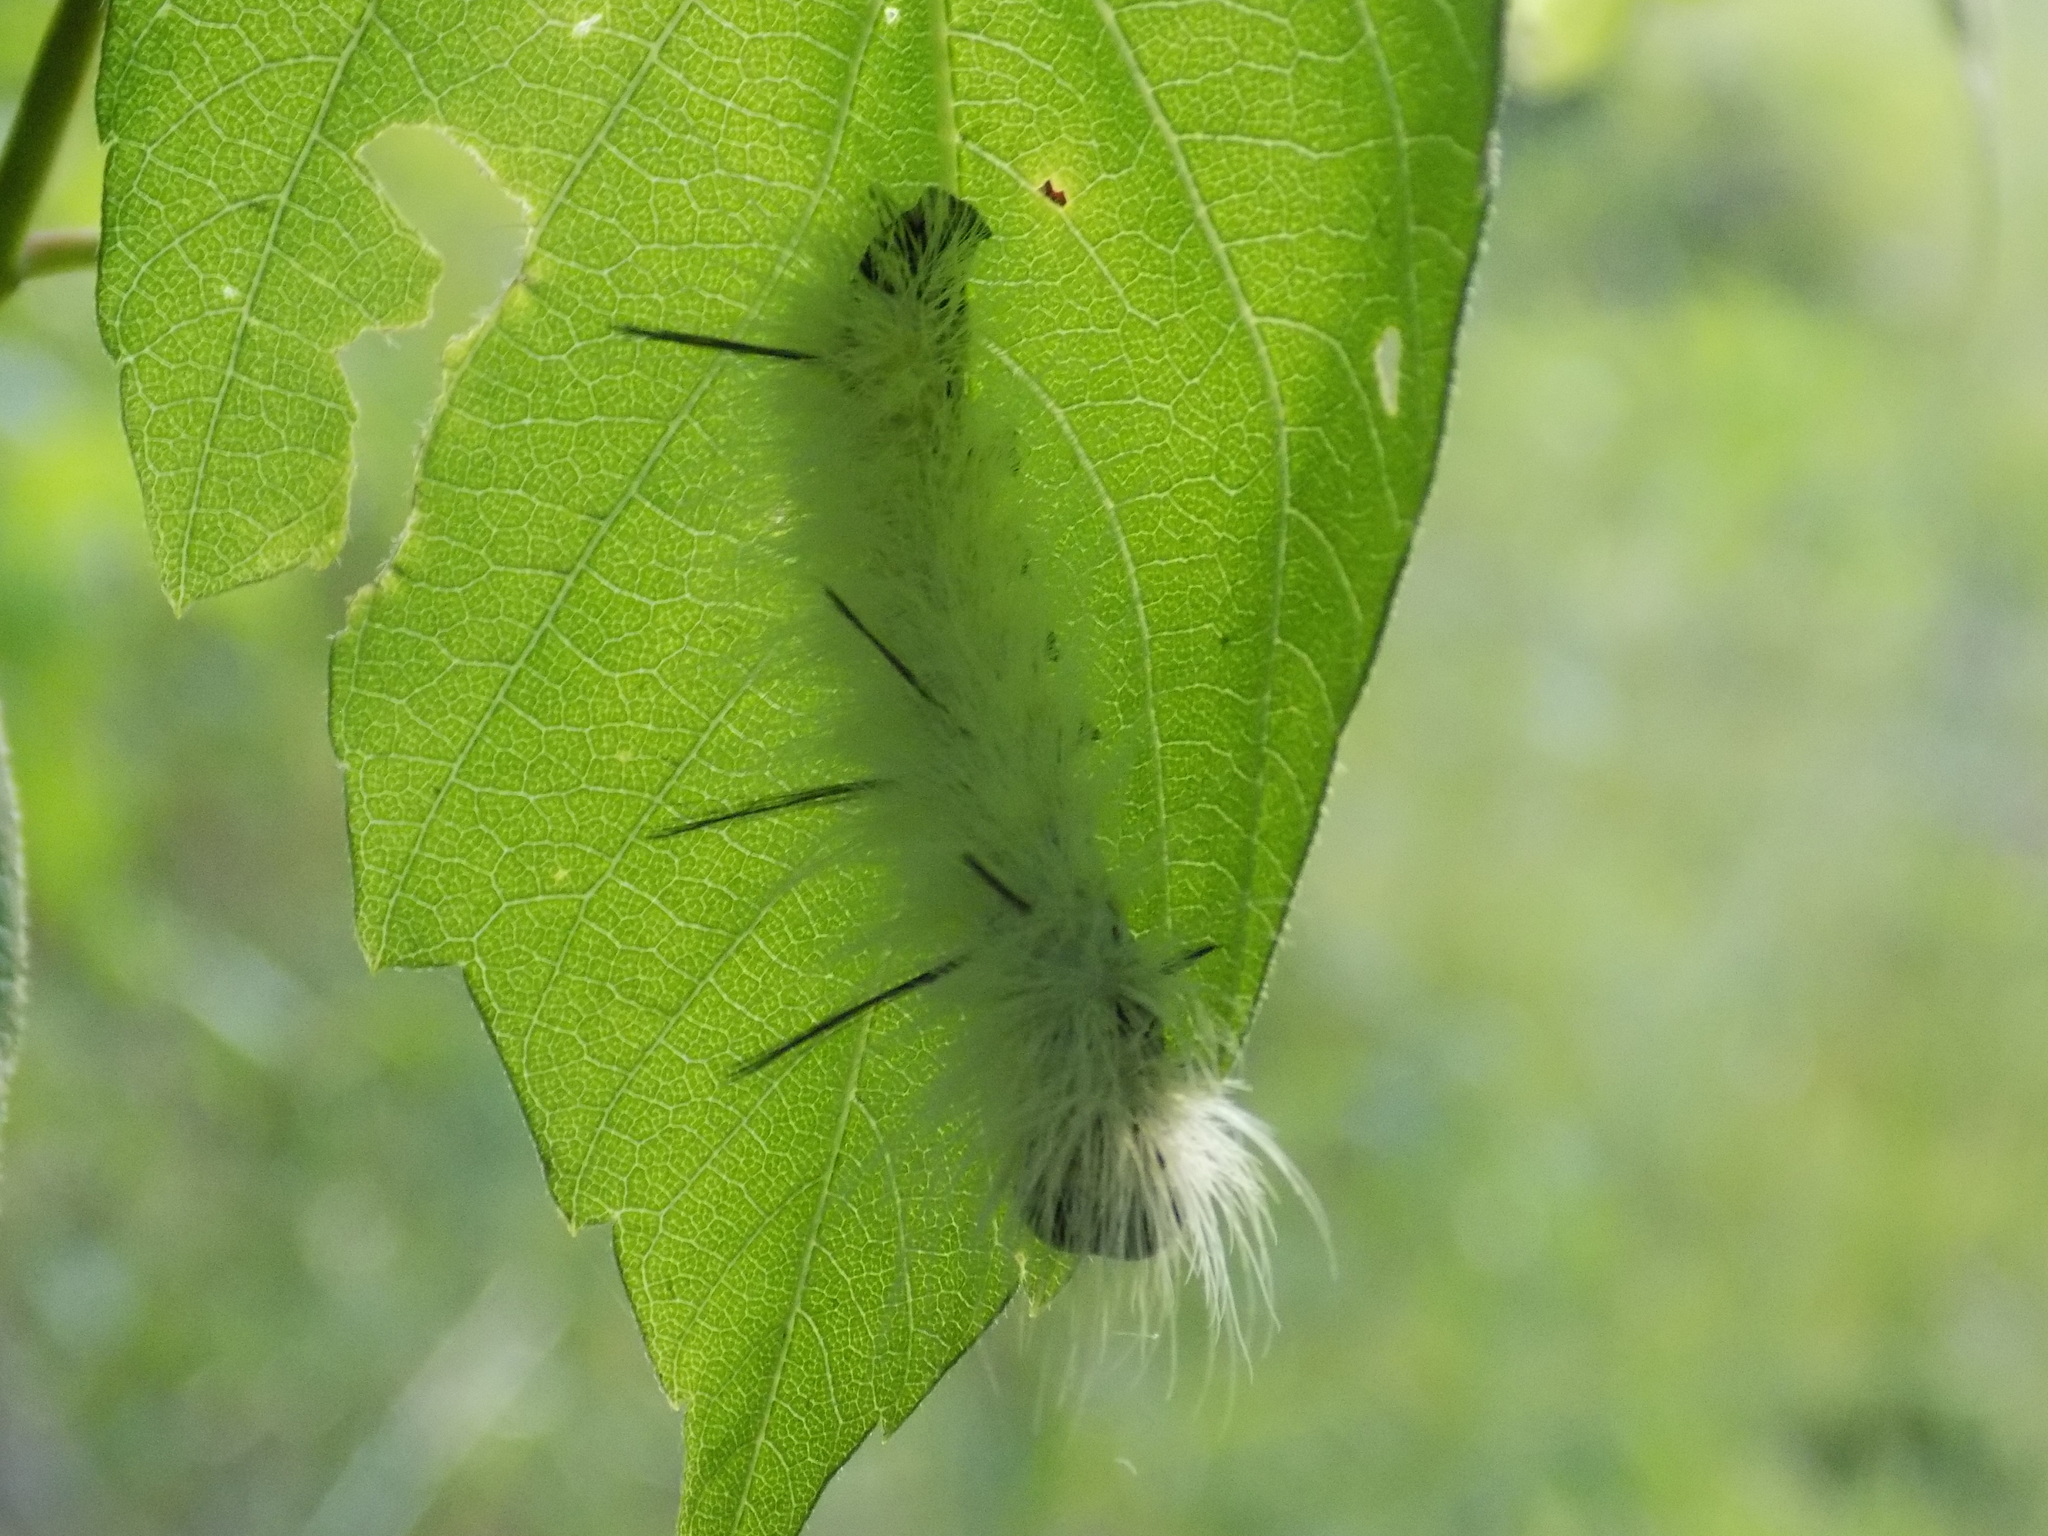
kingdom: Animalia
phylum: Arthropoda
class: Insecta
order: Lepidoptera
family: Noctuidae
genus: Acronicta
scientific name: Acronicta americana
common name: American dagger
